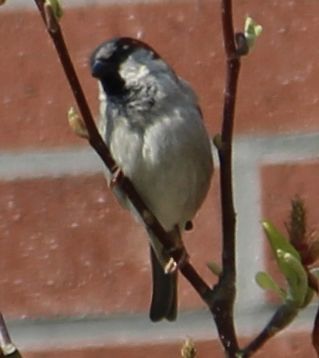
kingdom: Animalia
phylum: Chordata
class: Aves
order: Passeriformes
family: Passeridae
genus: Passer
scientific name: Passer domesticus
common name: House sparrow
